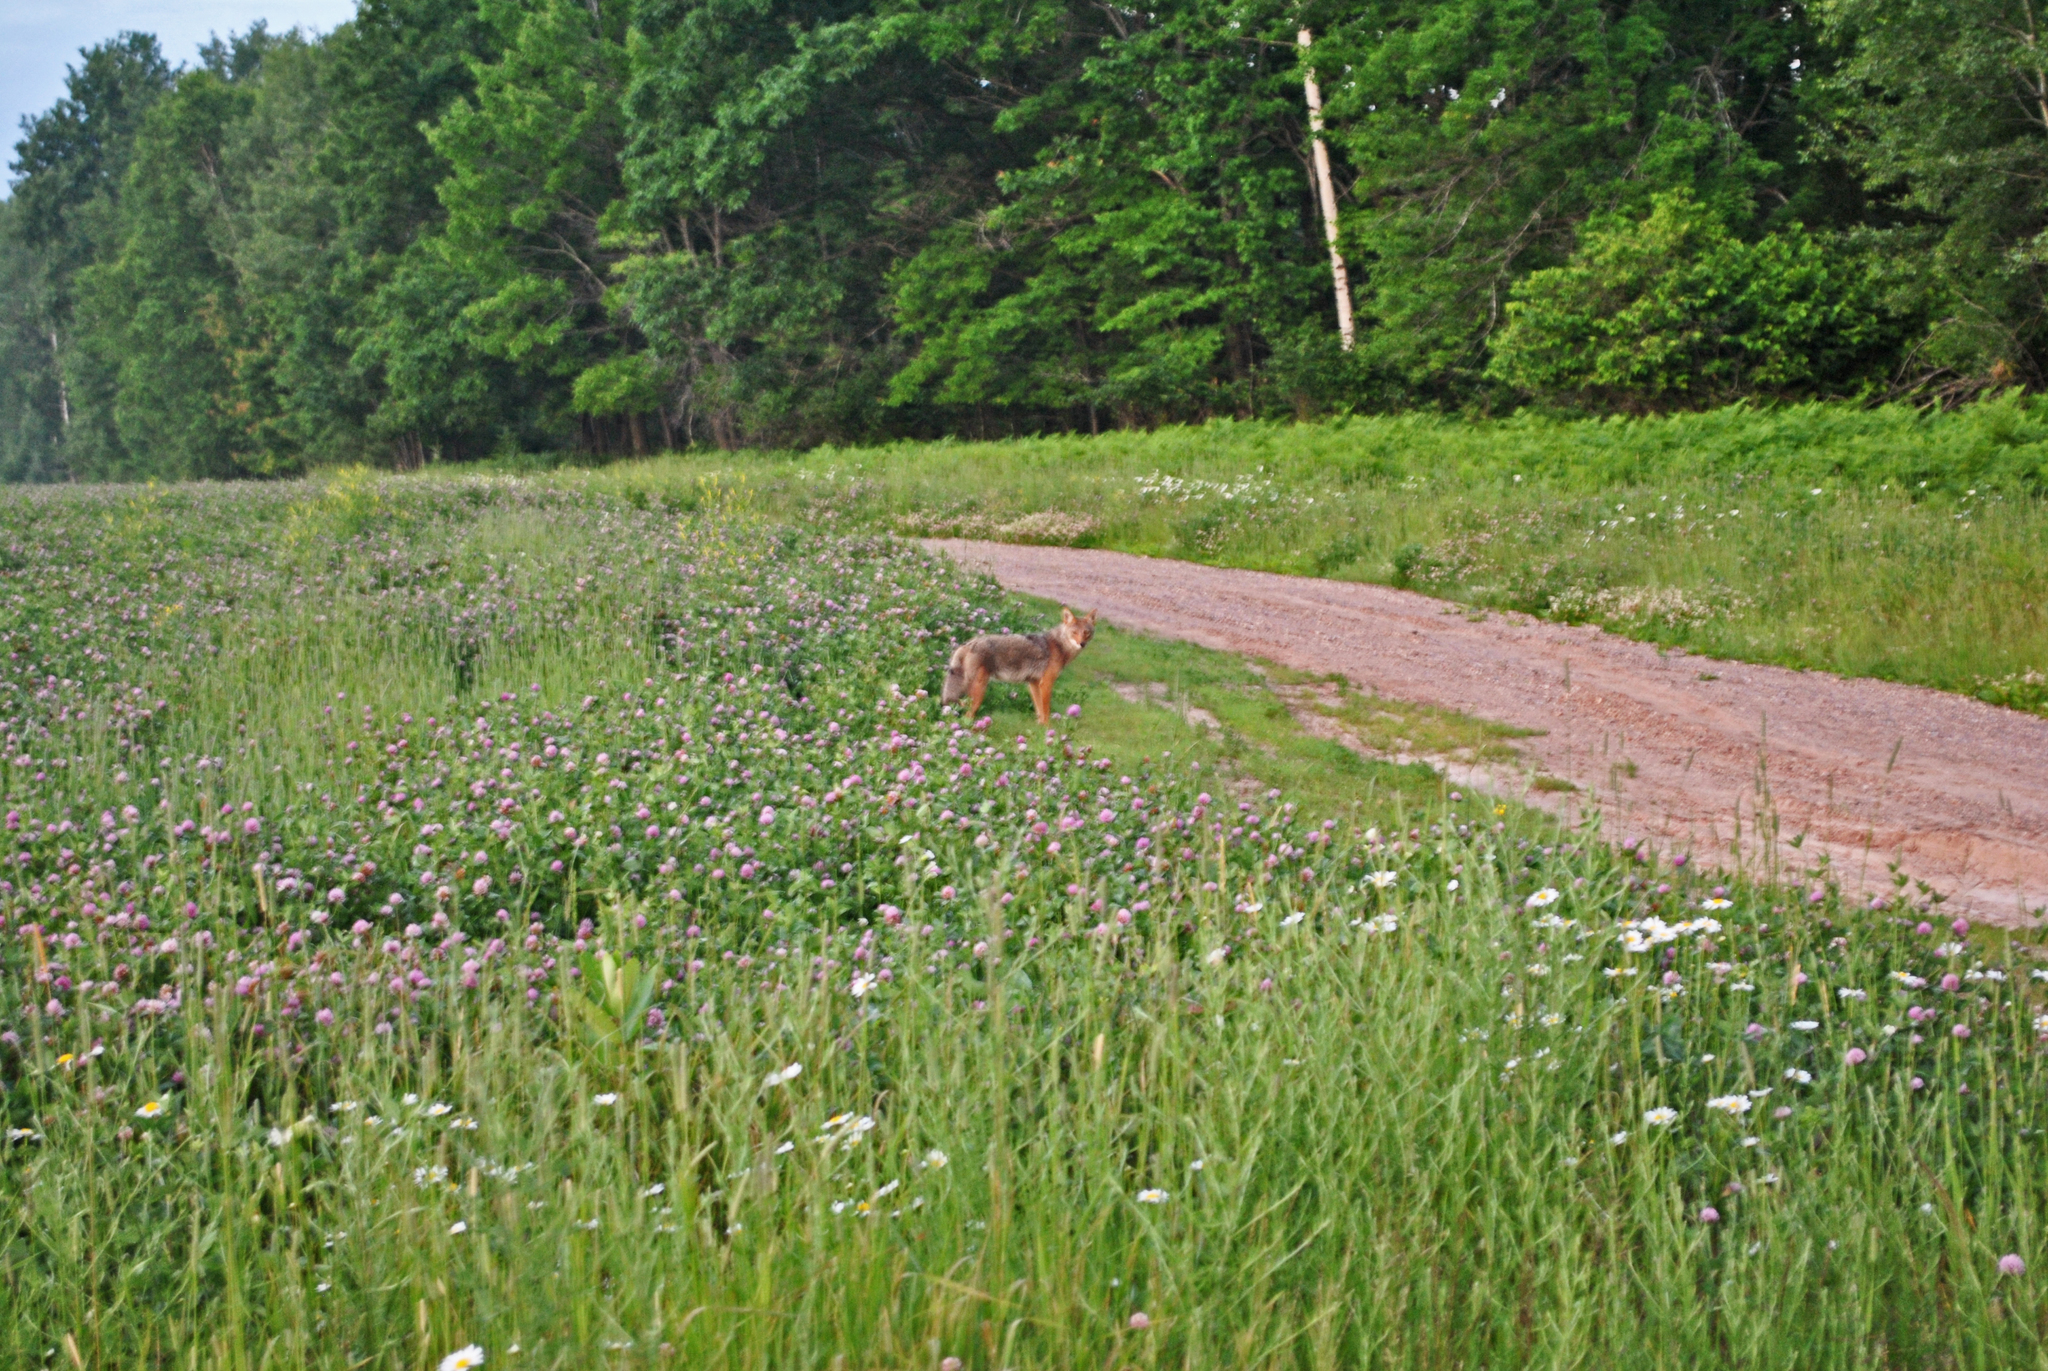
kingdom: Animalia
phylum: Chordata
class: Mammalia
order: Carnivora
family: Canidae
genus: Canis
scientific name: Canis latrans
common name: Coyote
